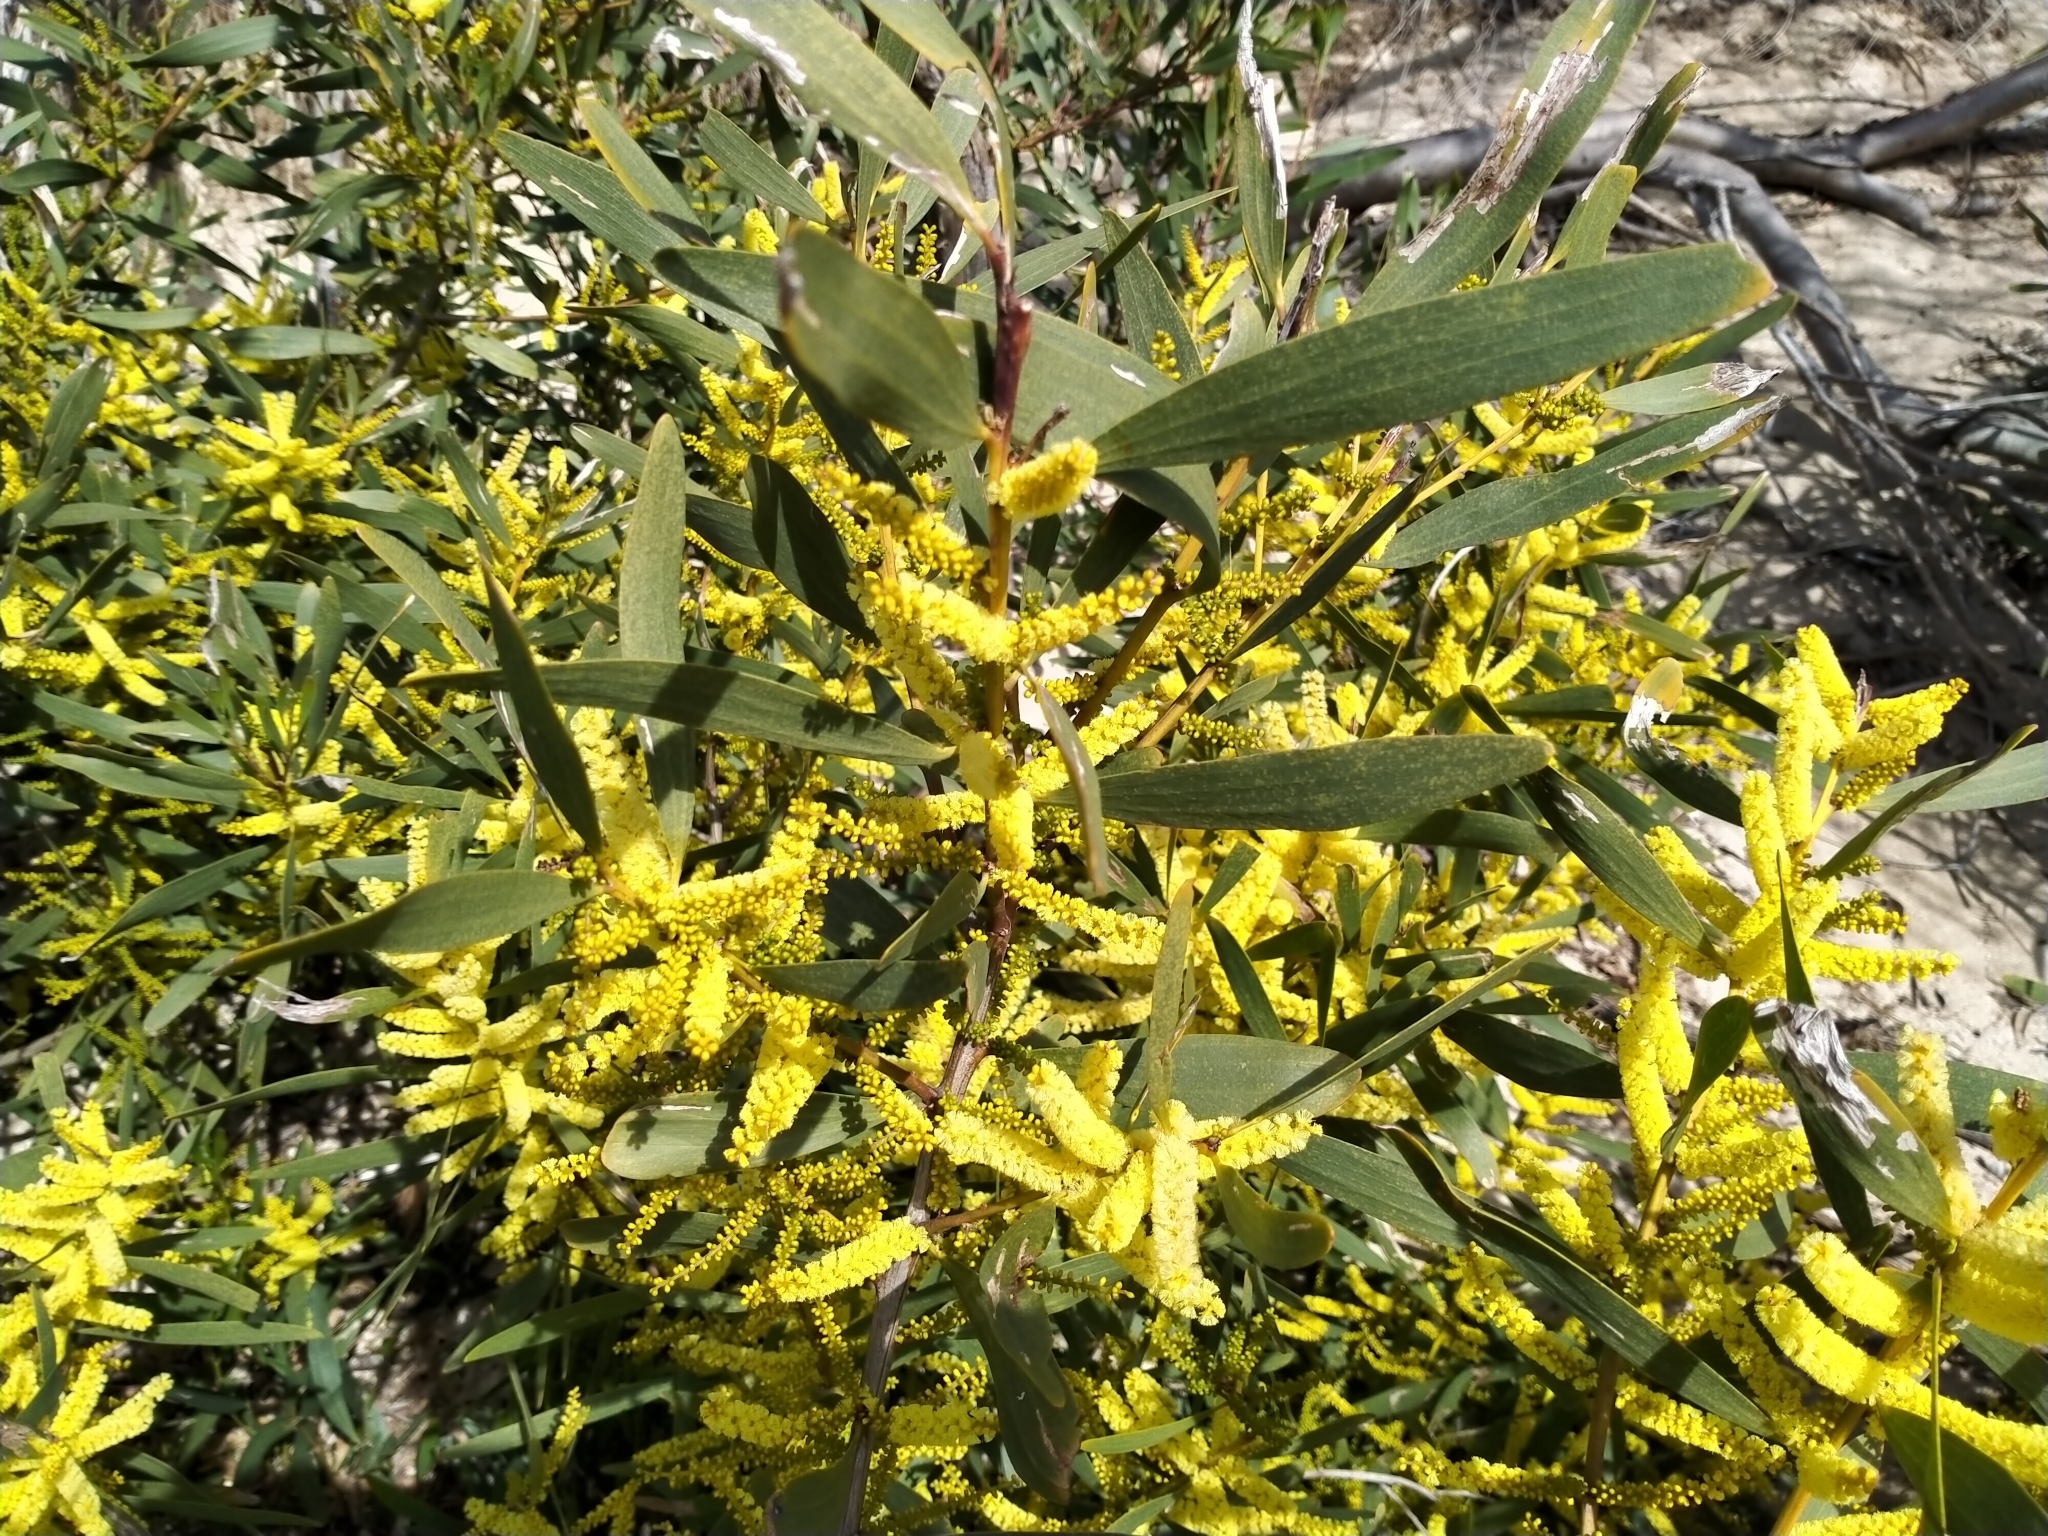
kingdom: Plantae
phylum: Tracheophyta
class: Magnoliopsida
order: Fabales
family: Fabaceae
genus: Acacia
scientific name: Acacia longifolia
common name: Sydney golden wattle
